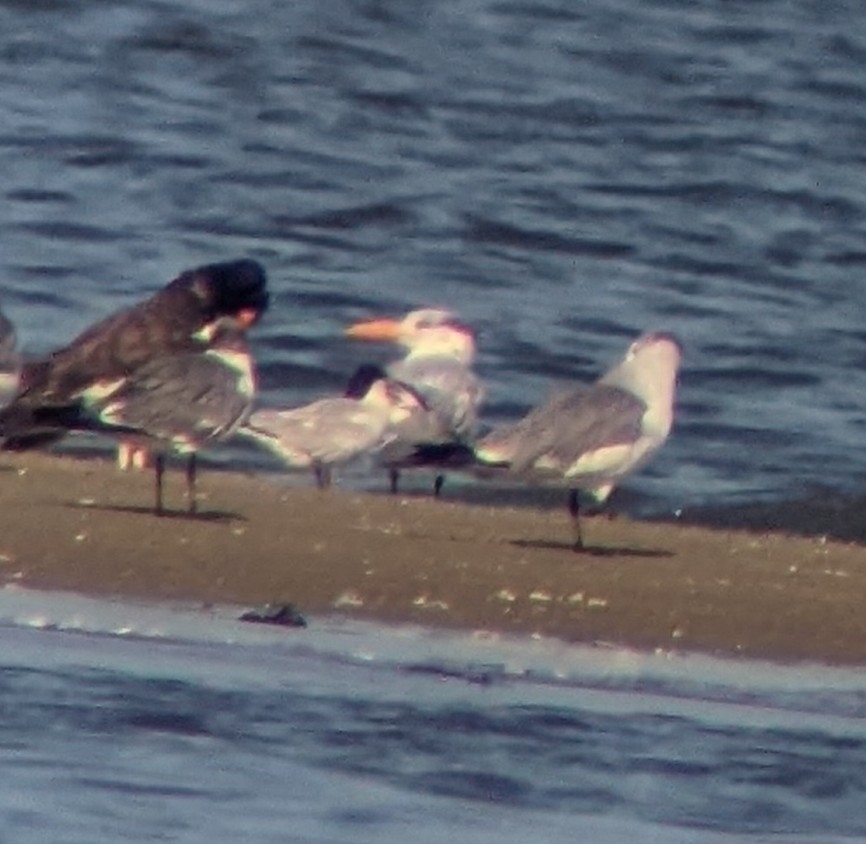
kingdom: Animalia
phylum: Chordata
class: Aves
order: Charadriiformes
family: Laridae
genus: Thalasseus
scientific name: Thalasseus maximus
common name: Royal tern
